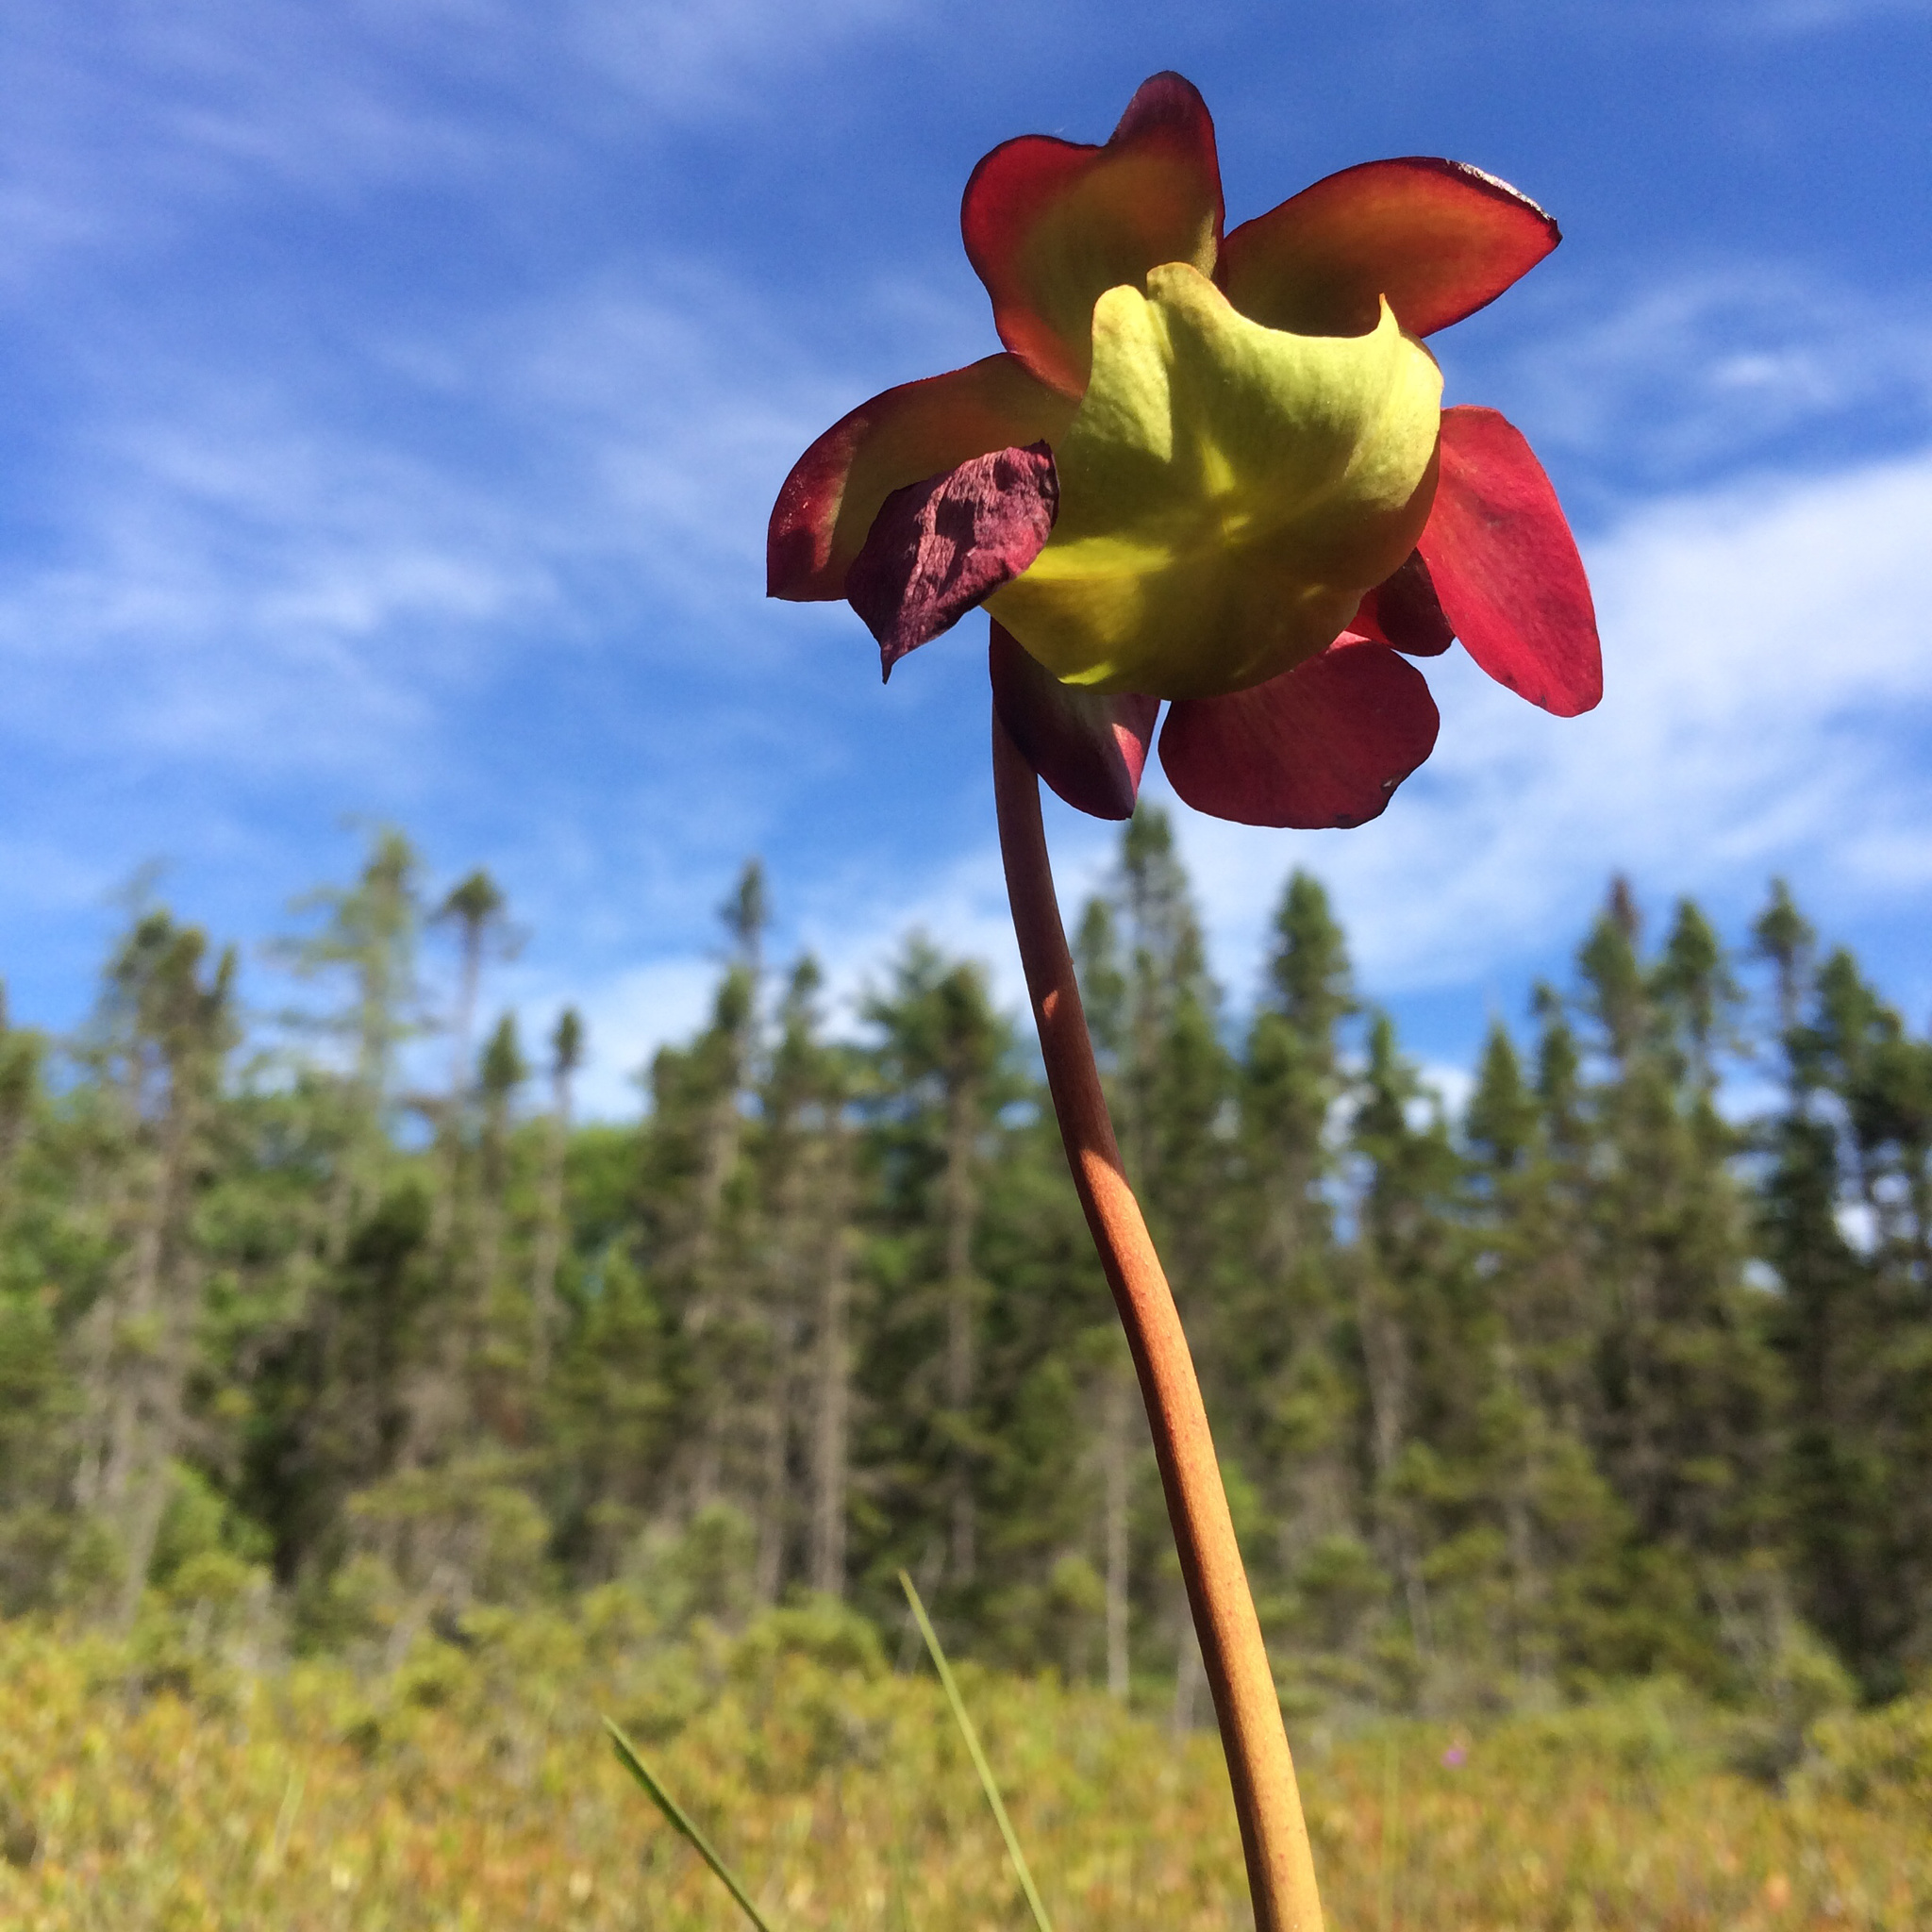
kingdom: Plantae
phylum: Tracheophyta
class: Magnoliopsida
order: Ericales
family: Sarraceniaceae
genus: Sarracenia
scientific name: Sarracenia purpurea
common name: Pitcherplant
